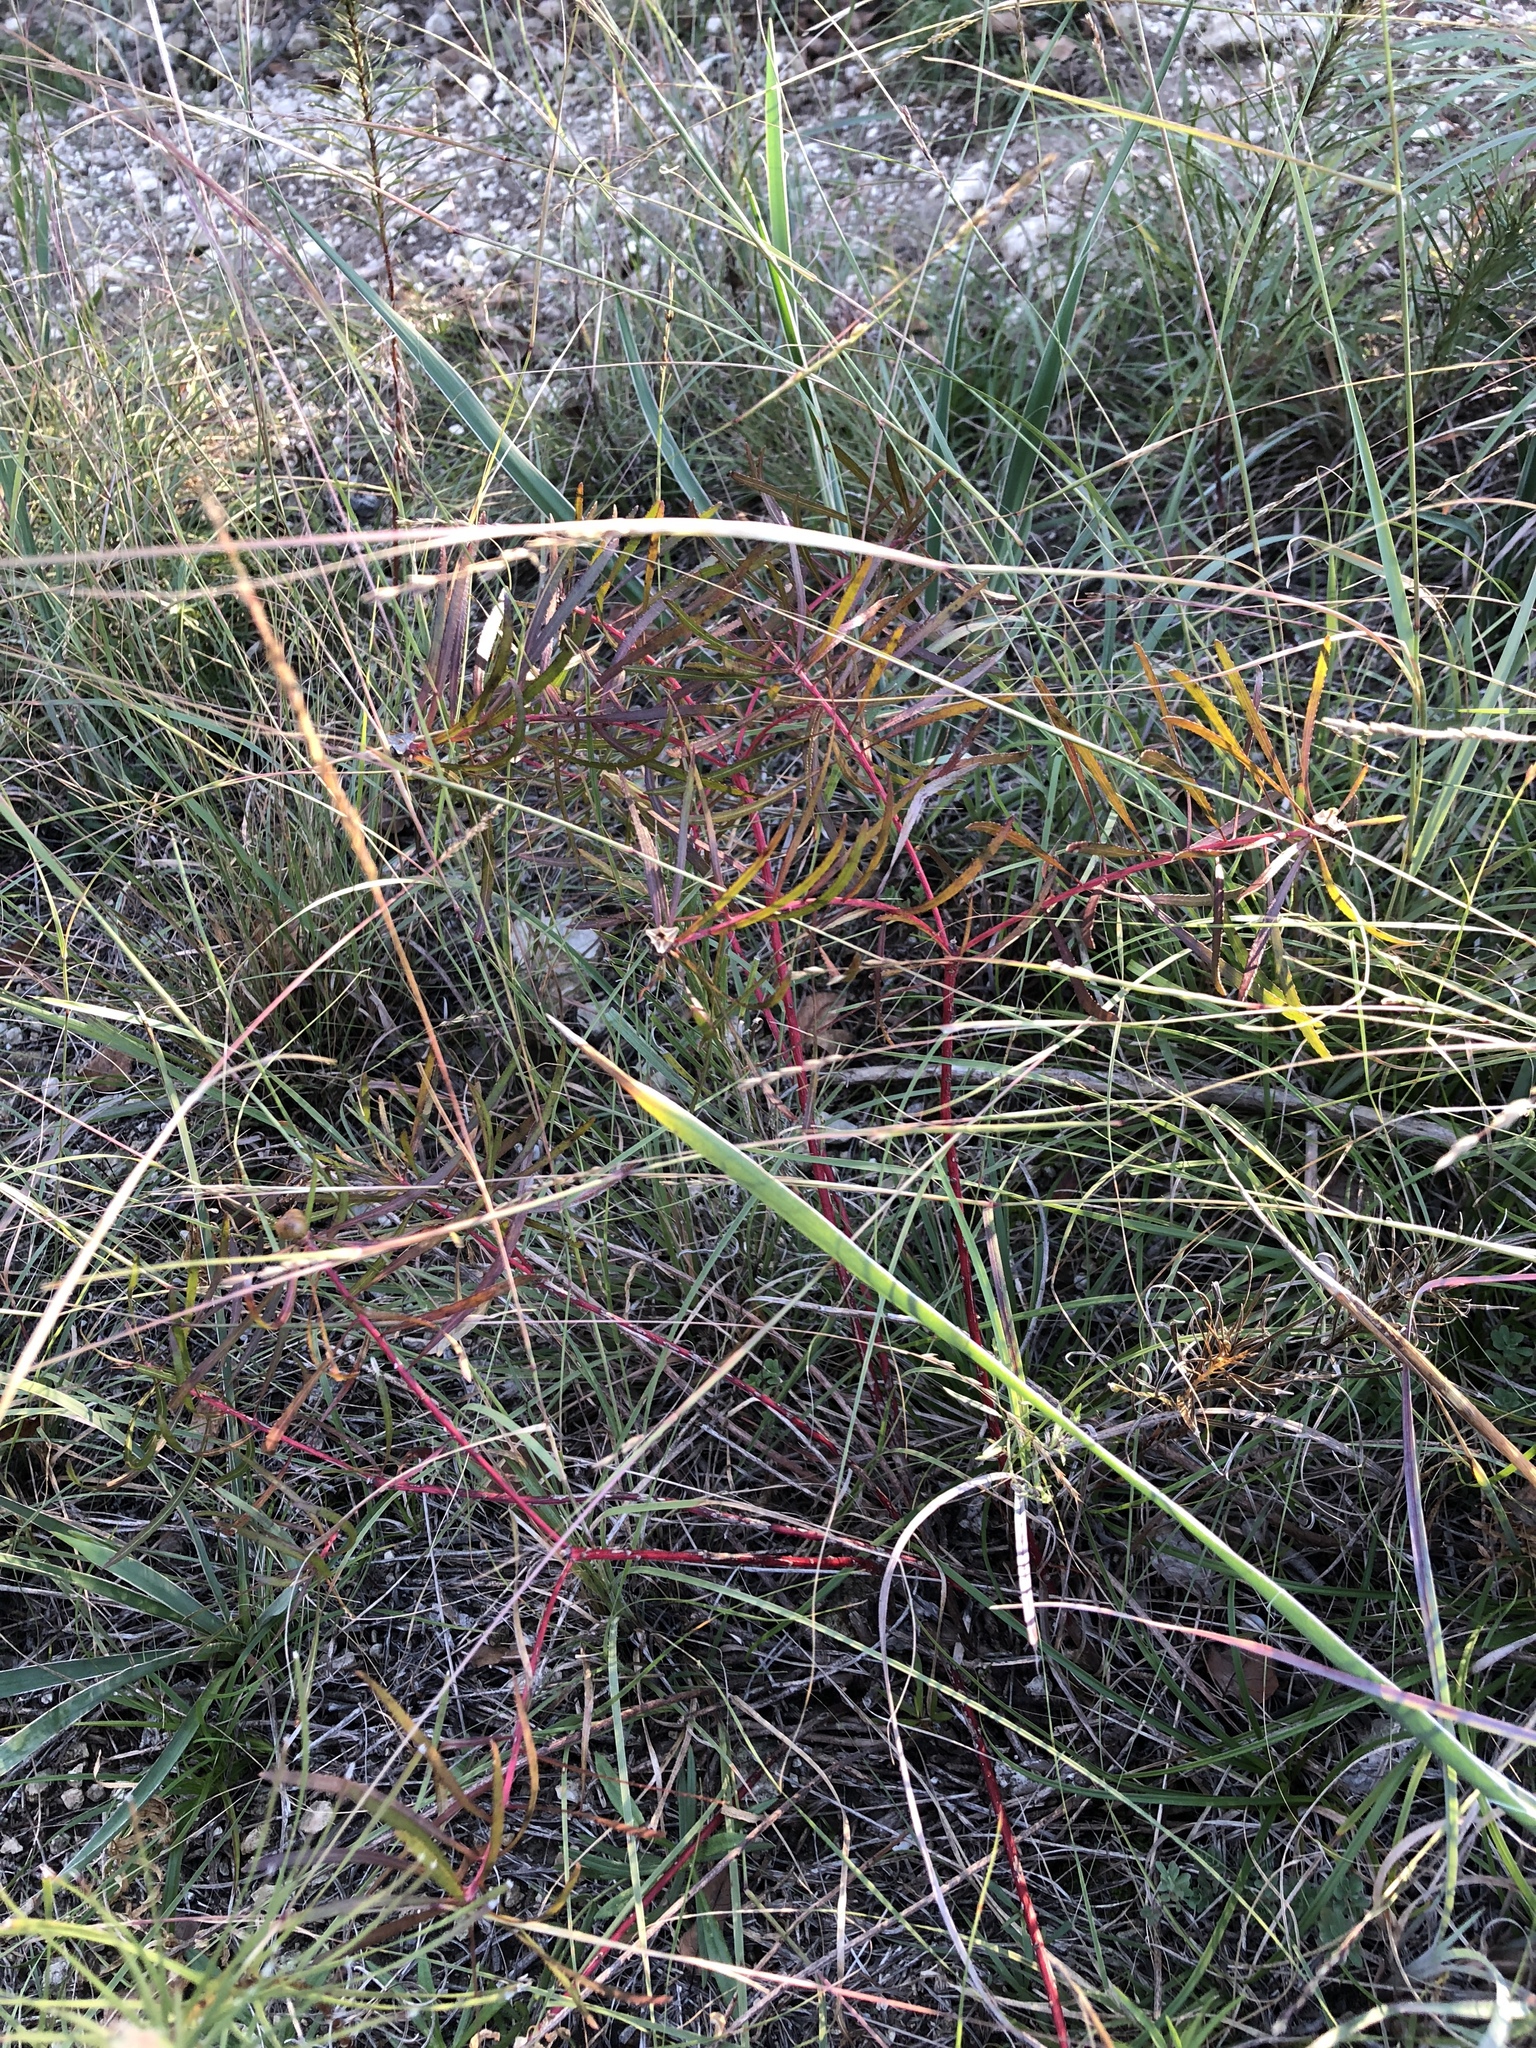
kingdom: Plantae
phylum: Tracheophyta
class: Magnoliopsida
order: Malpighiales
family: Euphorbiaceae
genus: Stillingia
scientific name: Stillingia texana
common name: Texas stillingia
